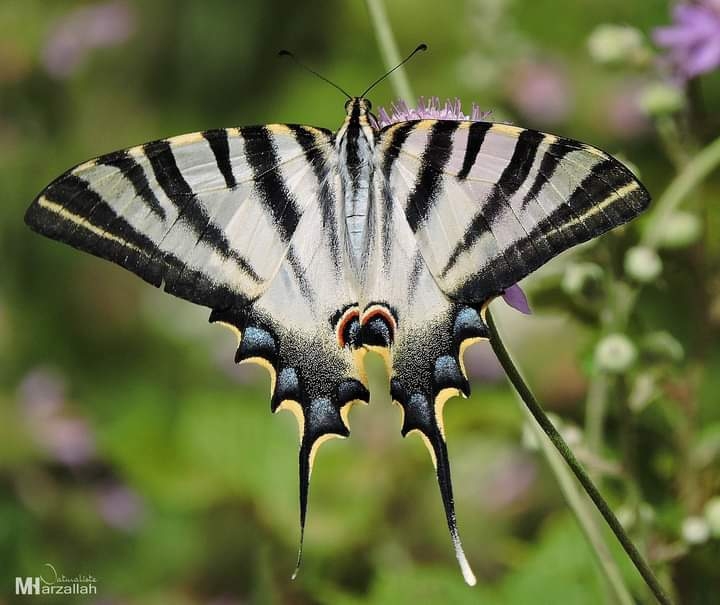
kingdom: Animalia
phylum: Arthropoda
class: Insecta
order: Lepidoptera
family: Papilionidae
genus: Iphiclides
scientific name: Iphiclides feisthamelii
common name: Iberian scarce swallowtail
